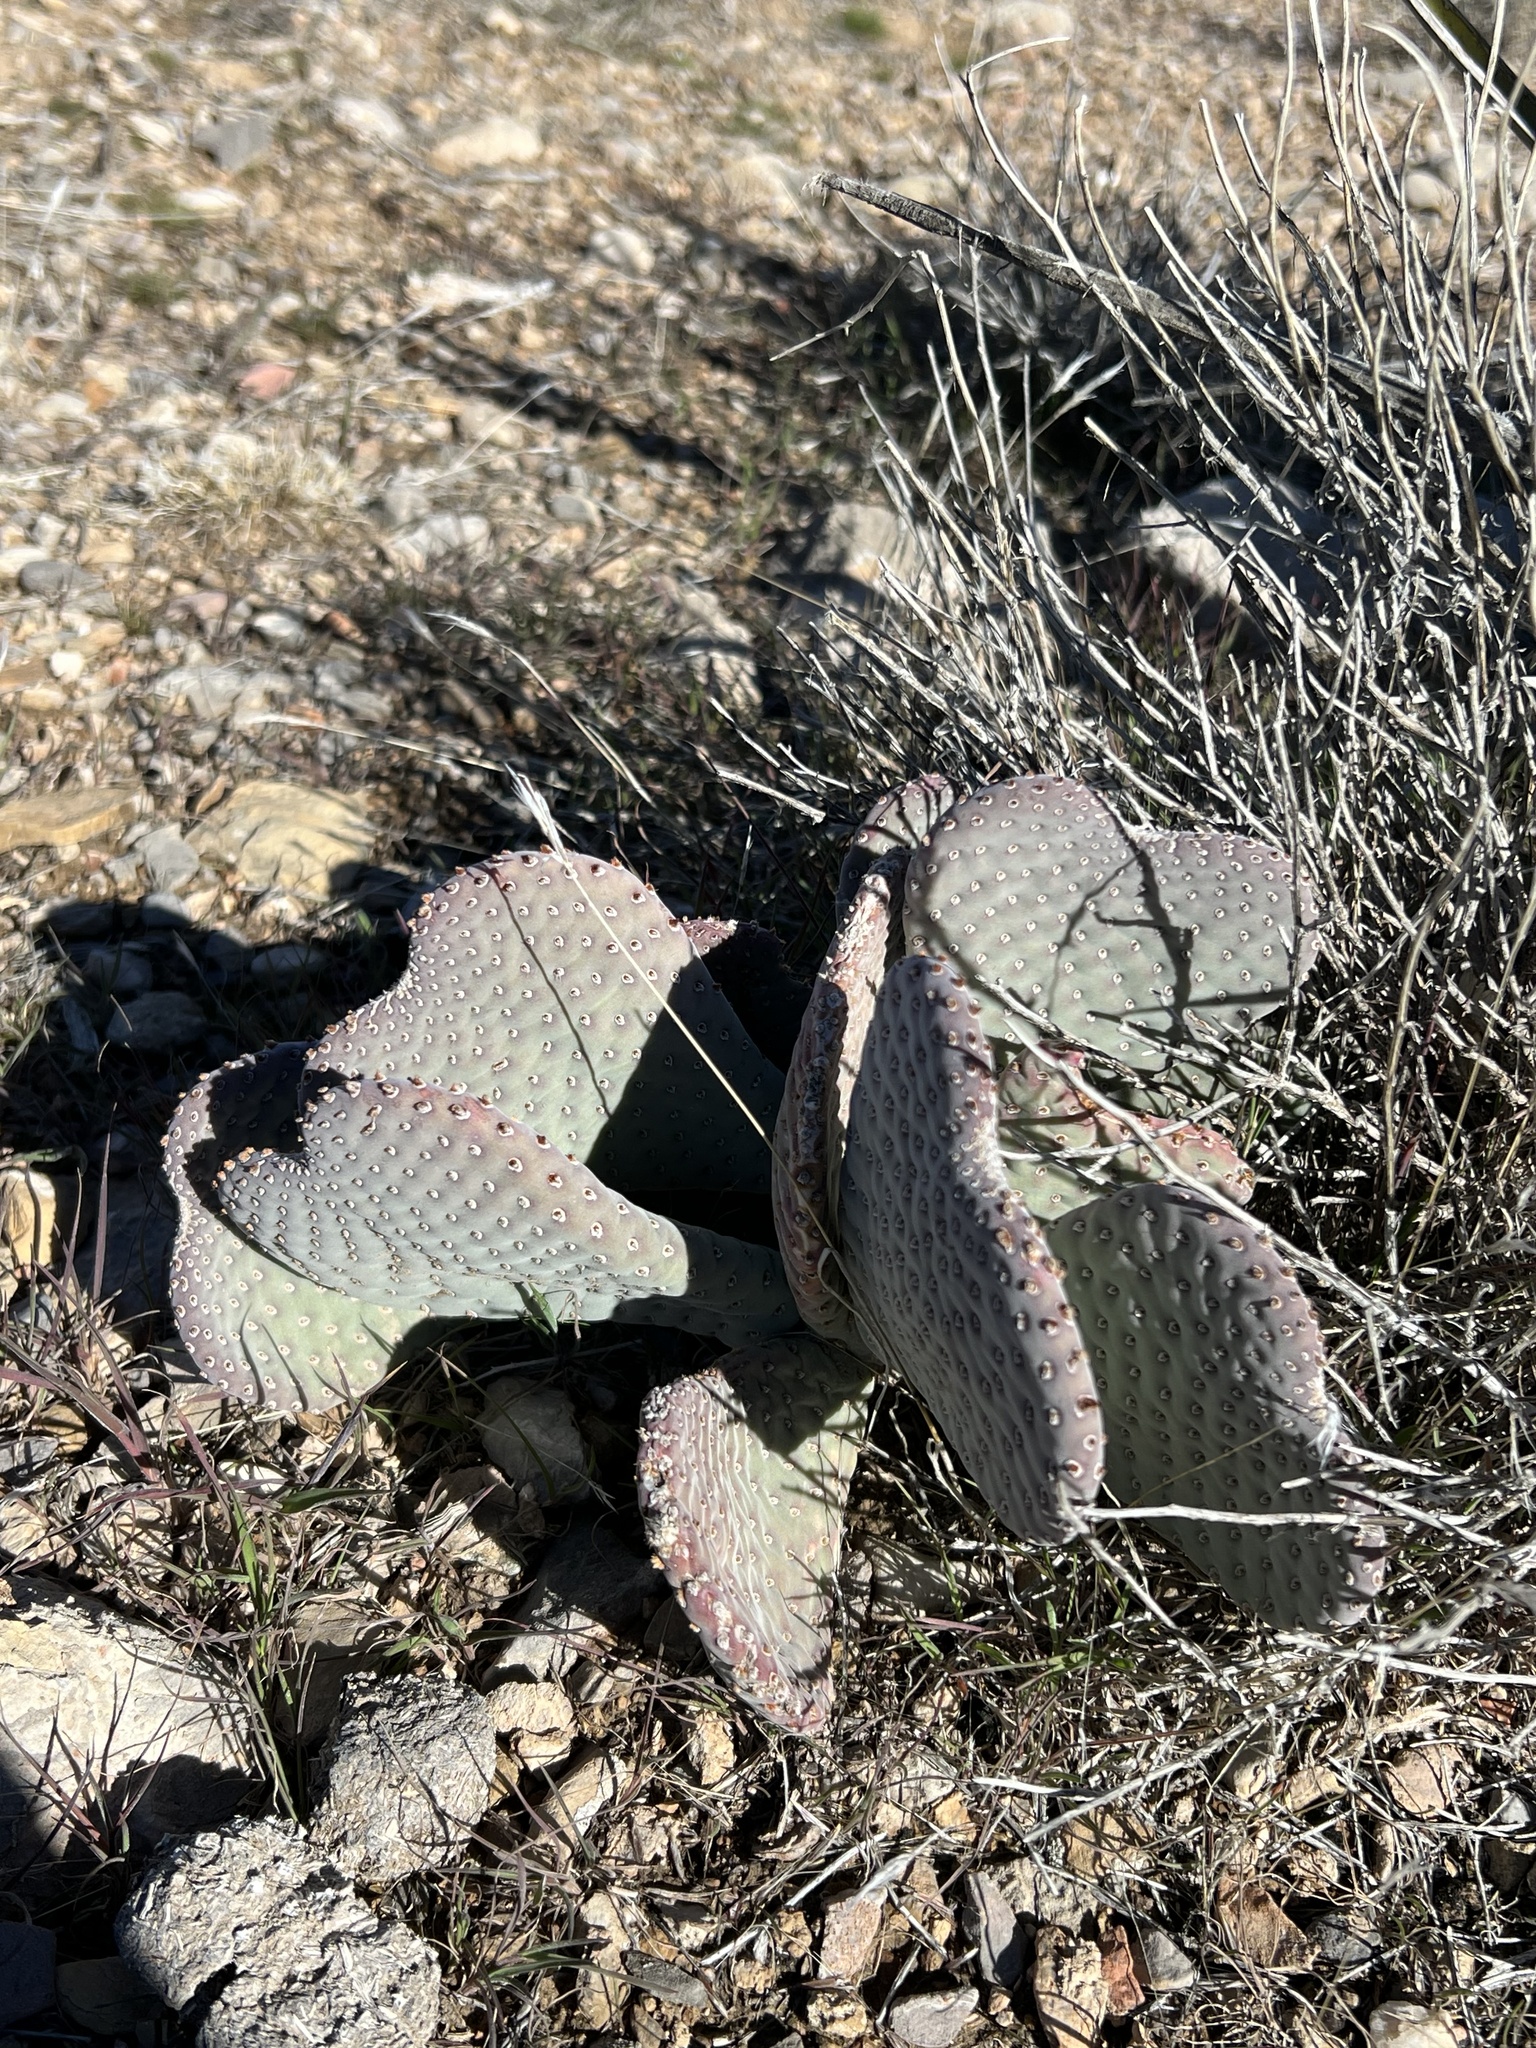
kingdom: Plantae
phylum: Tracheophyta
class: Magnoliopsida
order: Caryophyllales
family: Cactaceae
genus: Opuntia
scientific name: Opuntia basilaris
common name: Beavertail prickly-pear
